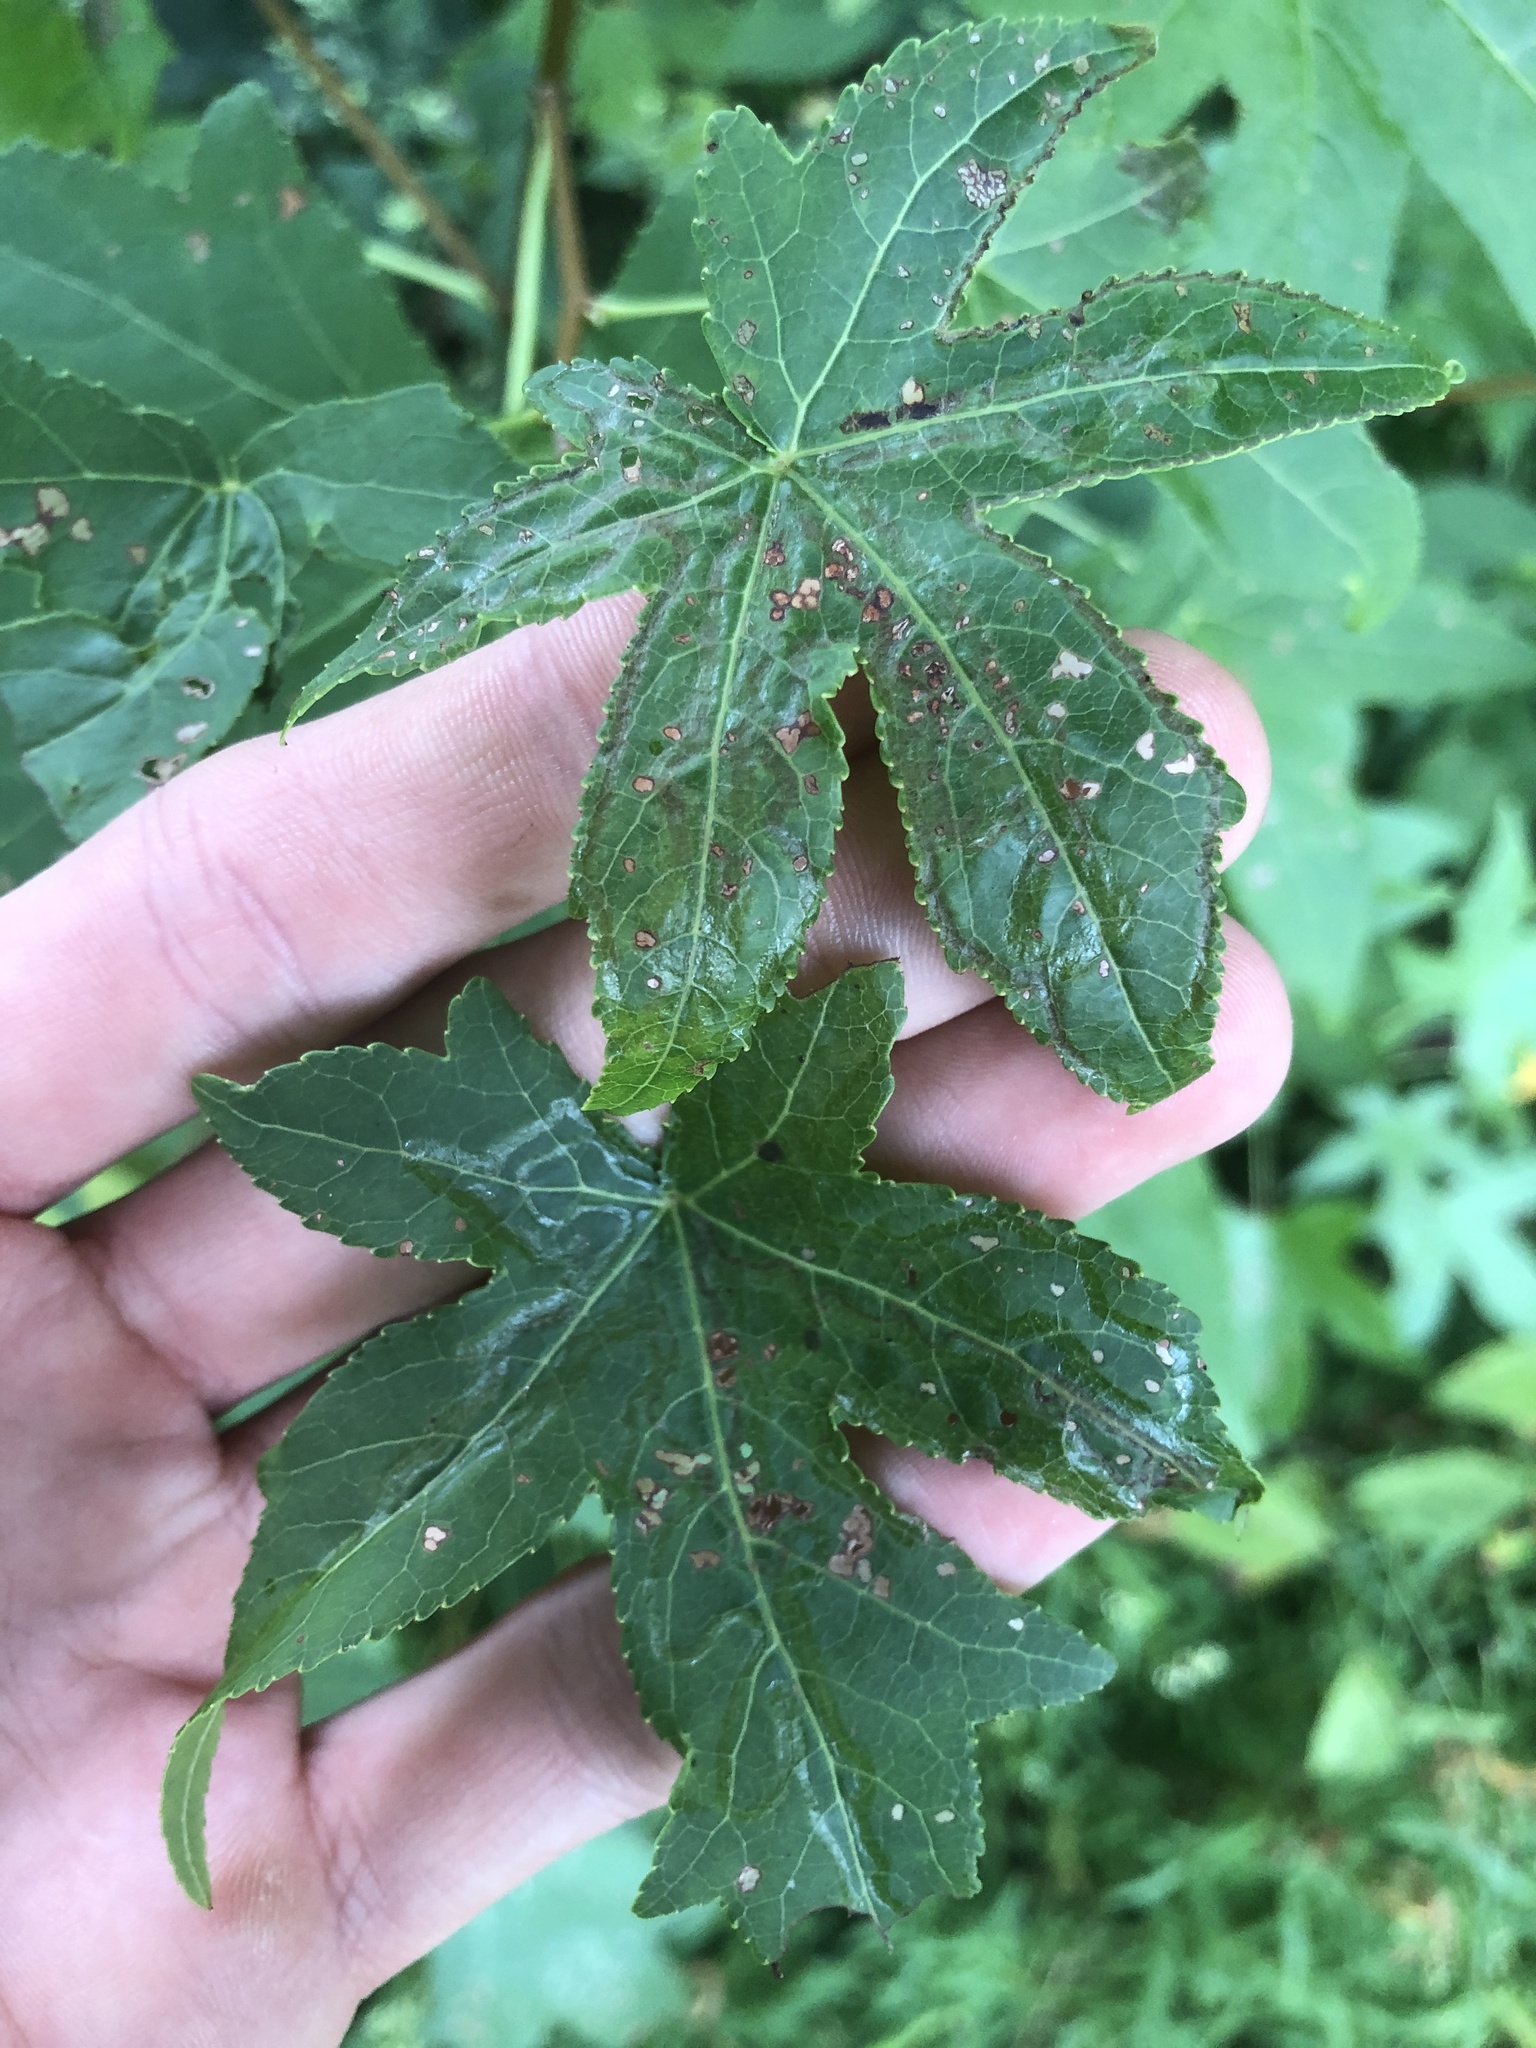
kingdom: Animalia
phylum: Arthropoda
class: Insecta
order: Lepidoptera
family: Gracillariidae
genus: Phyllocnistis
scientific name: Phyllocnistis liquidambarisella
